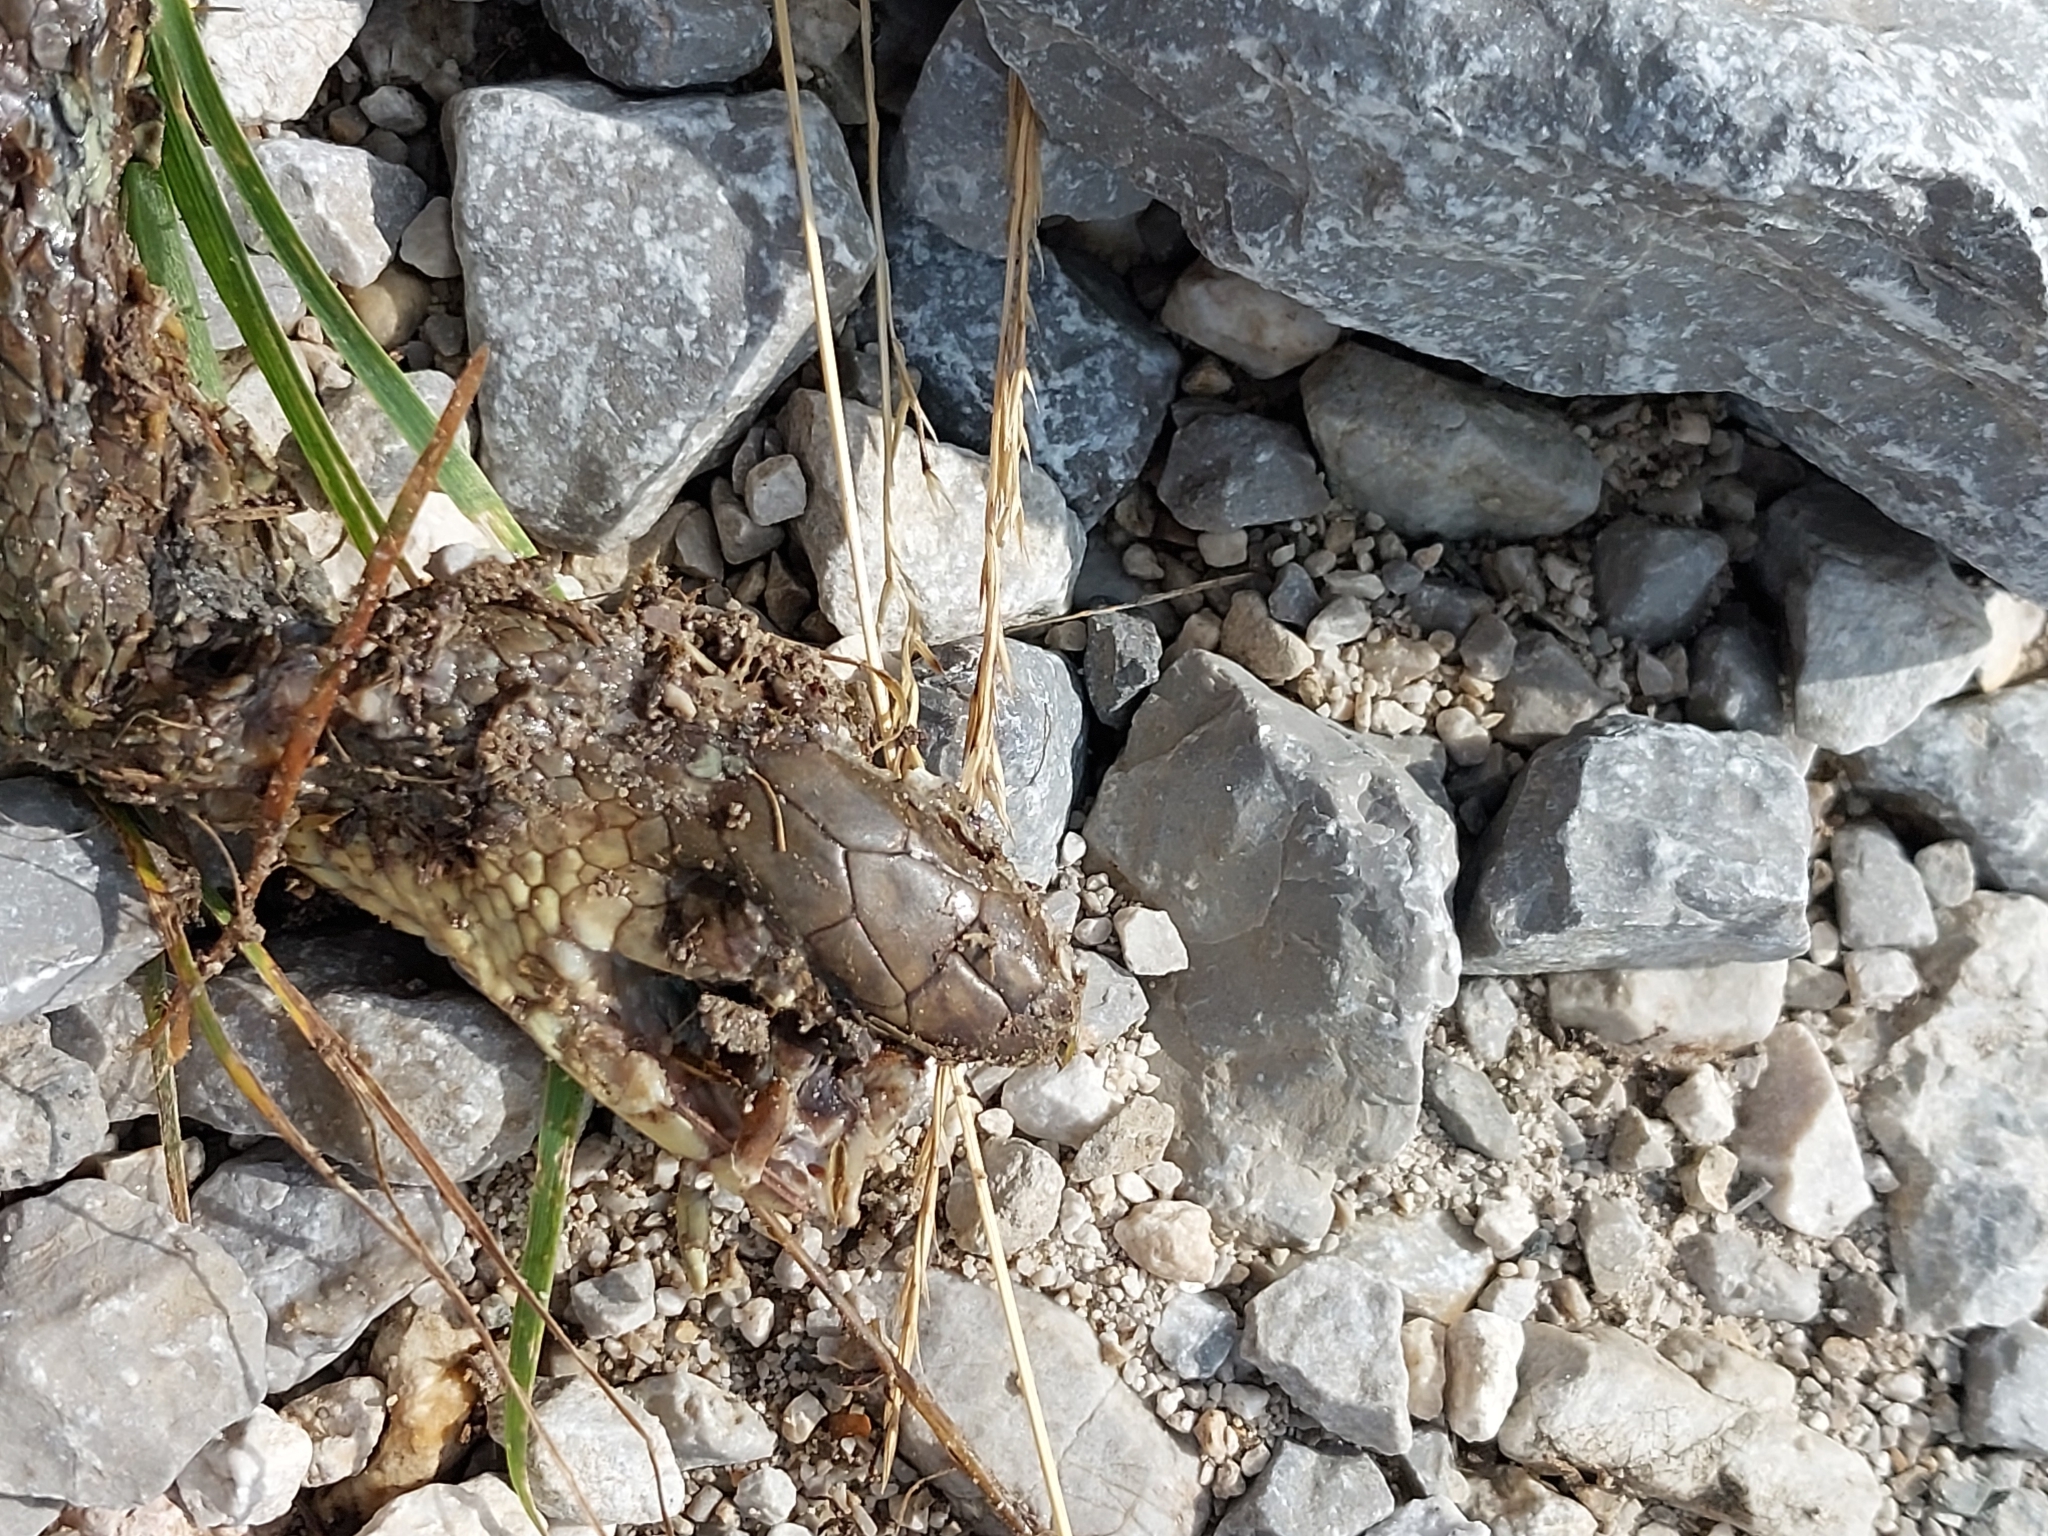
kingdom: Animalia
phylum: Chordata
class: Squamata
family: Colubridae
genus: Zamenis
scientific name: Zamenis longissimus
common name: Aesculapean snake
